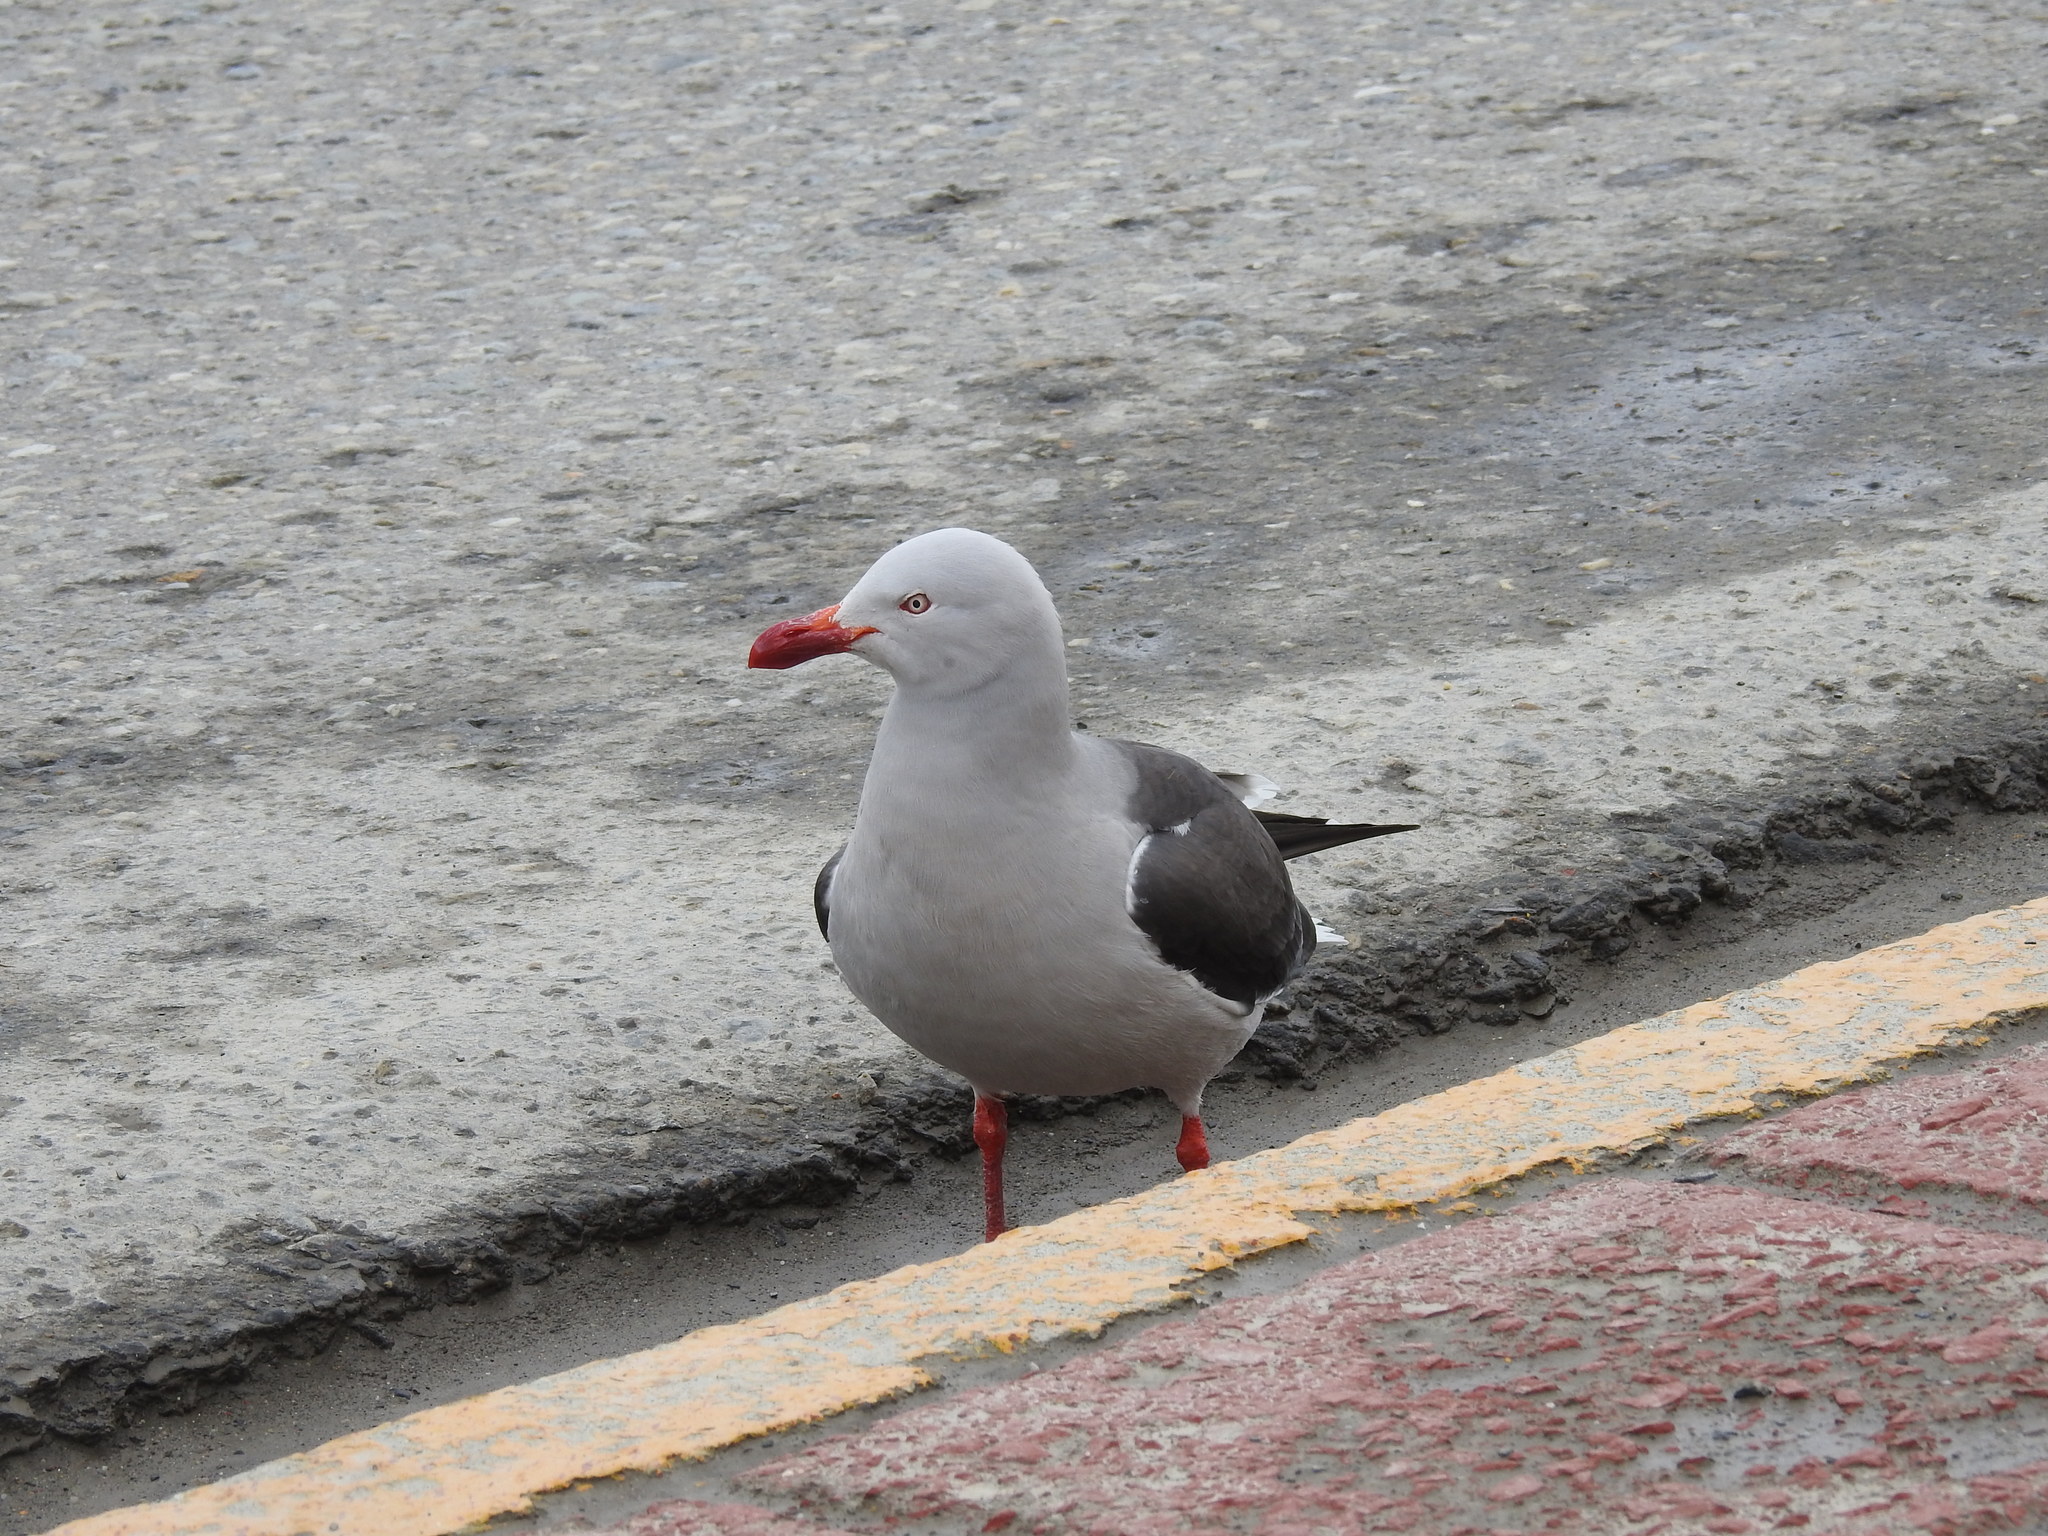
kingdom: Animalia
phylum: Chordata
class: Aves
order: Charadriiformes
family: Laridae
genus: Leucophaeus
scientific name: Leucophaeus scoresbii
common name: Dolphin gull
